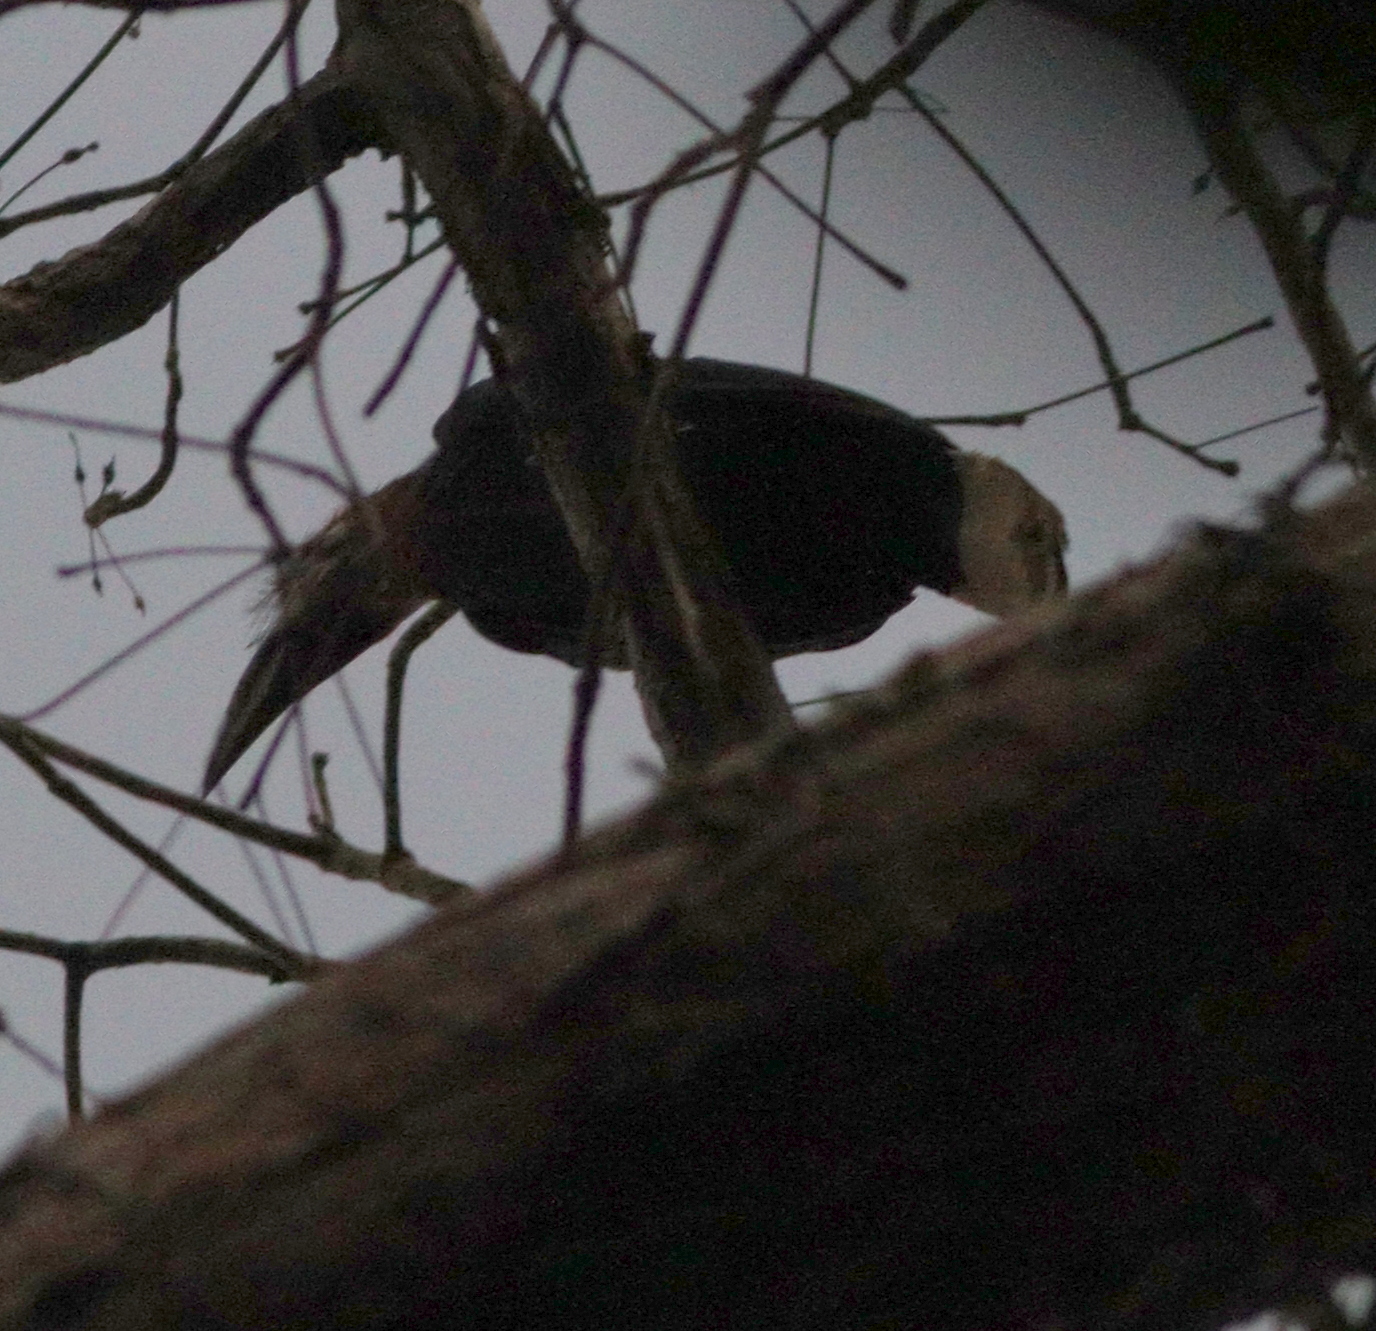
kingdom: Animalia
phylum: Chordata
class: Aves
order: Bucerotiformes
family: Bucerotidae
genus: Ceratogymna
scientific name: Ceratogymna atrata
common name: Black-casqued hornbill
